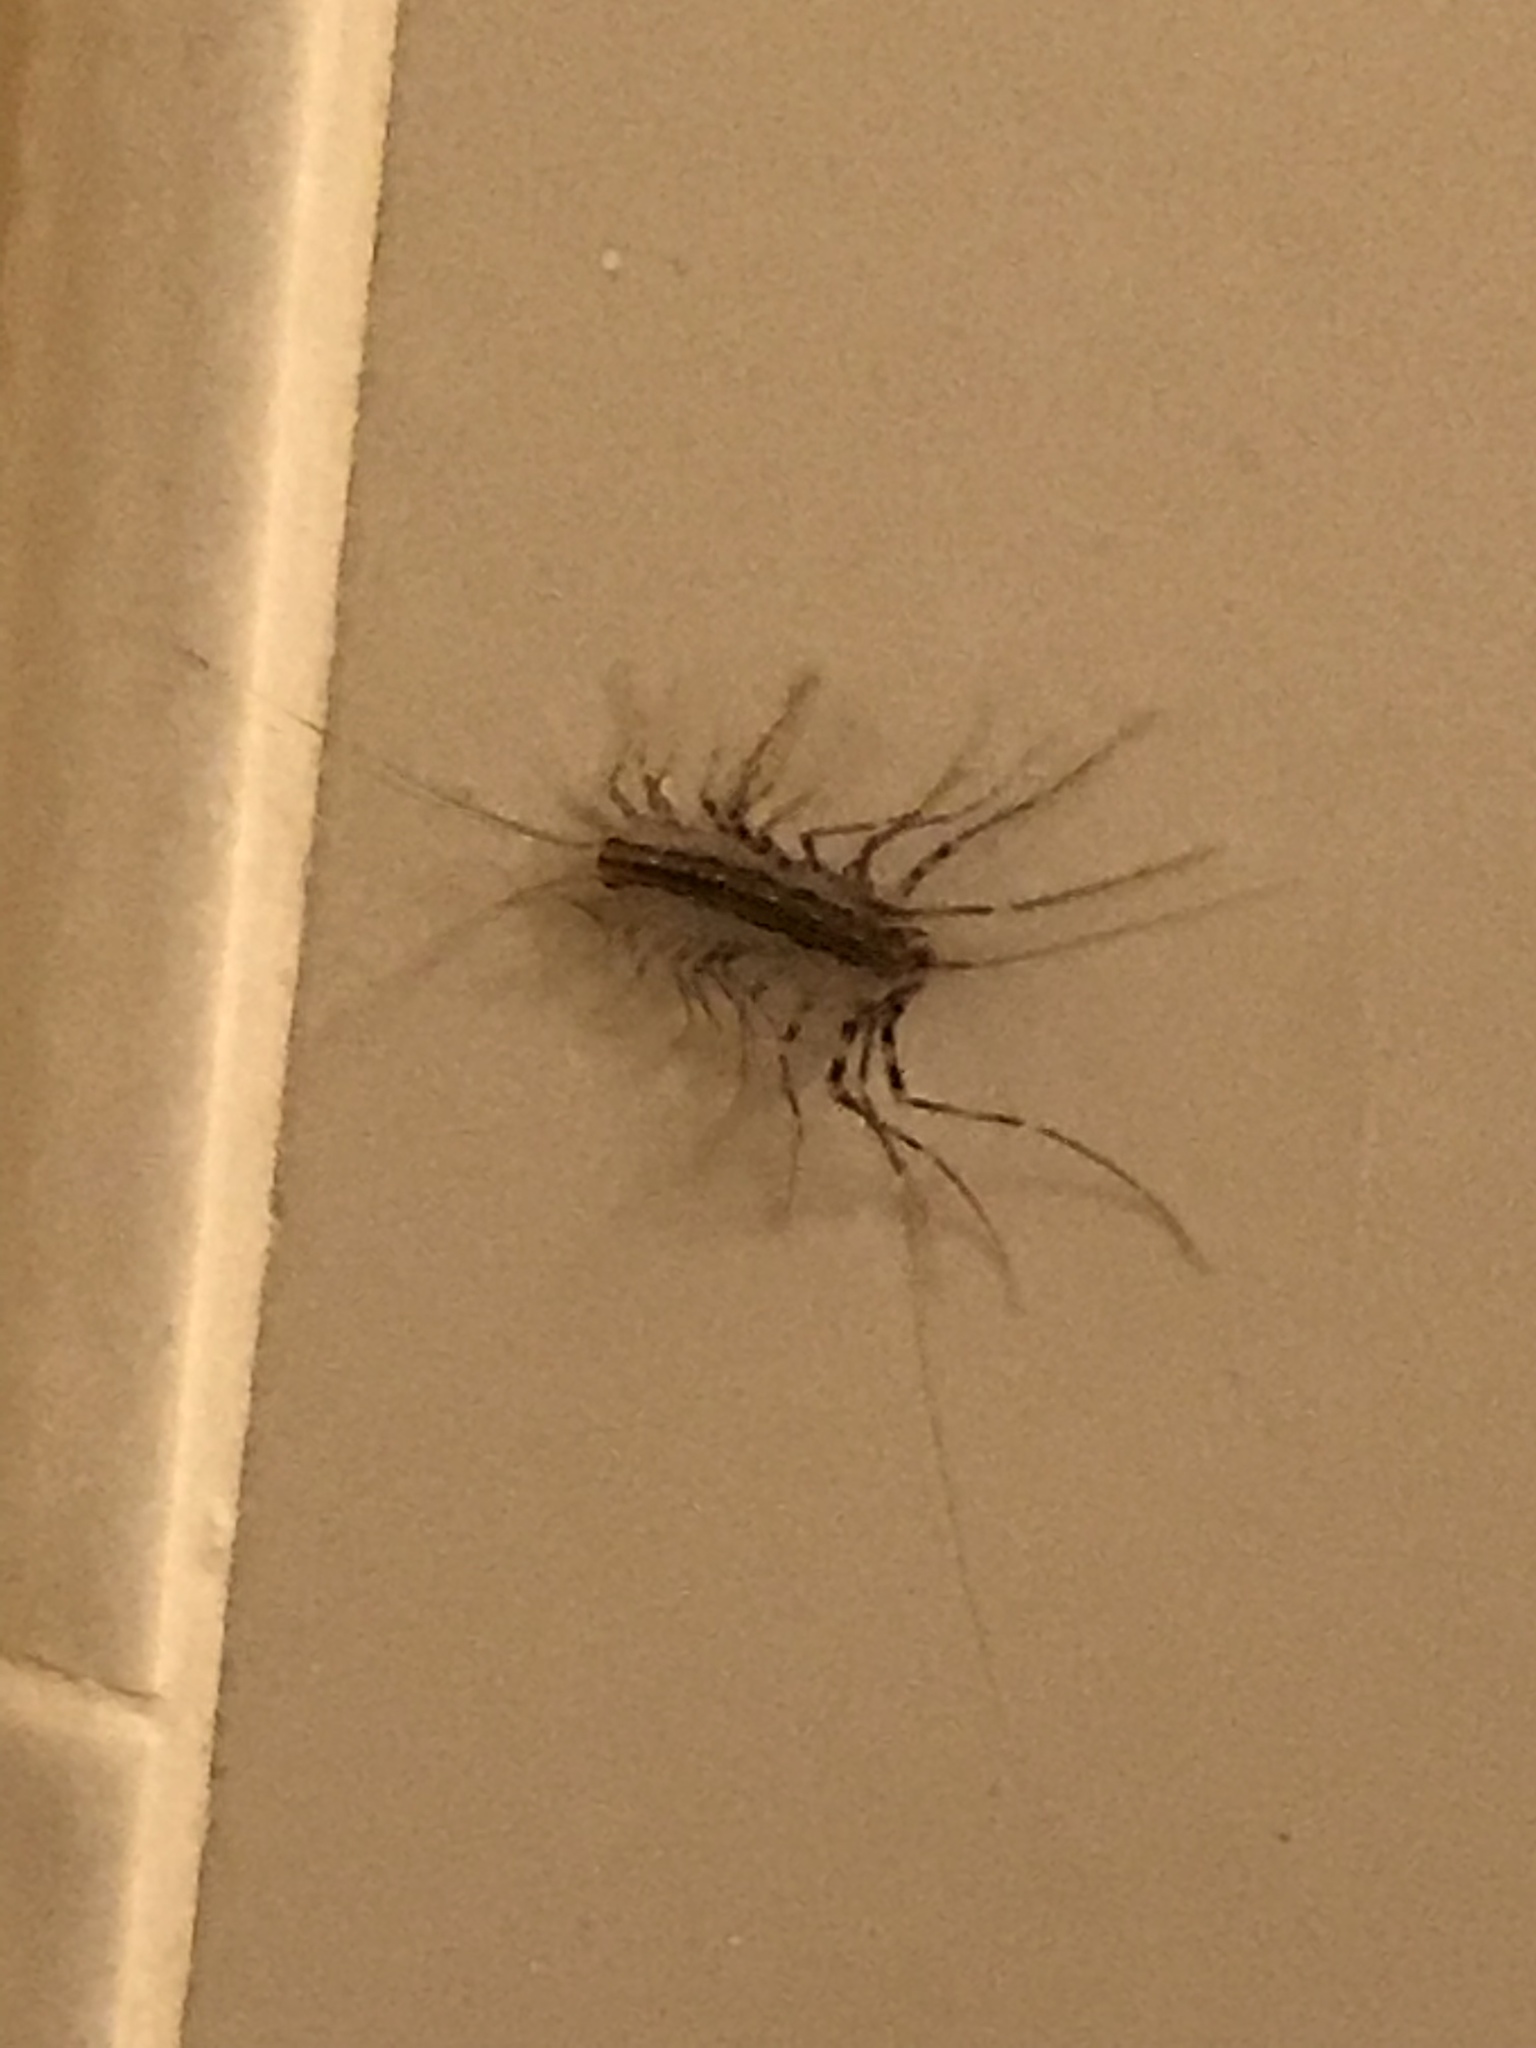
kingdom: Animalia
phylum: Arthropoda
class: Chilopoda
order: Scutigeromorpha
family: Scutigeridae
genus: Scutigera
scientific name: Scutigera coleoptrata
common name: House centipede
